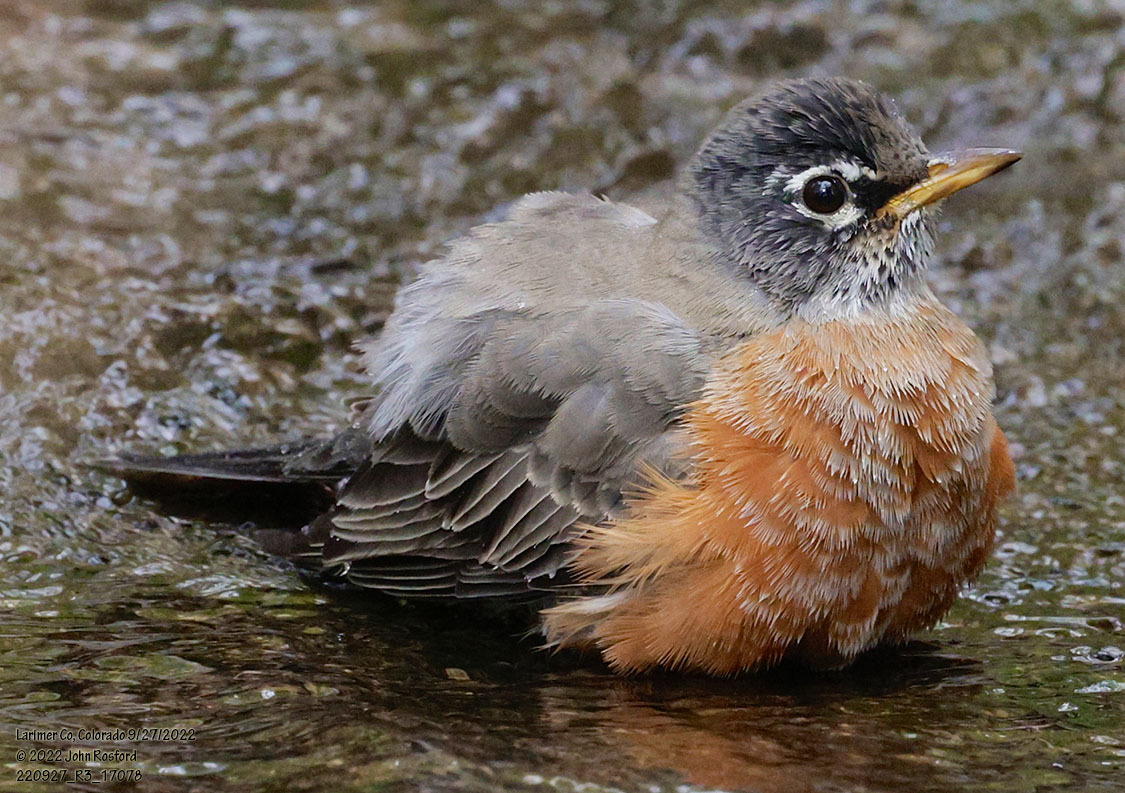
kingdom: Animalia
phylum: Chordata
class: Aves
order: Passeriformes
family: Turdidae
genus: Turdus
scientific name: Turdus migratorius
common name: American robin
